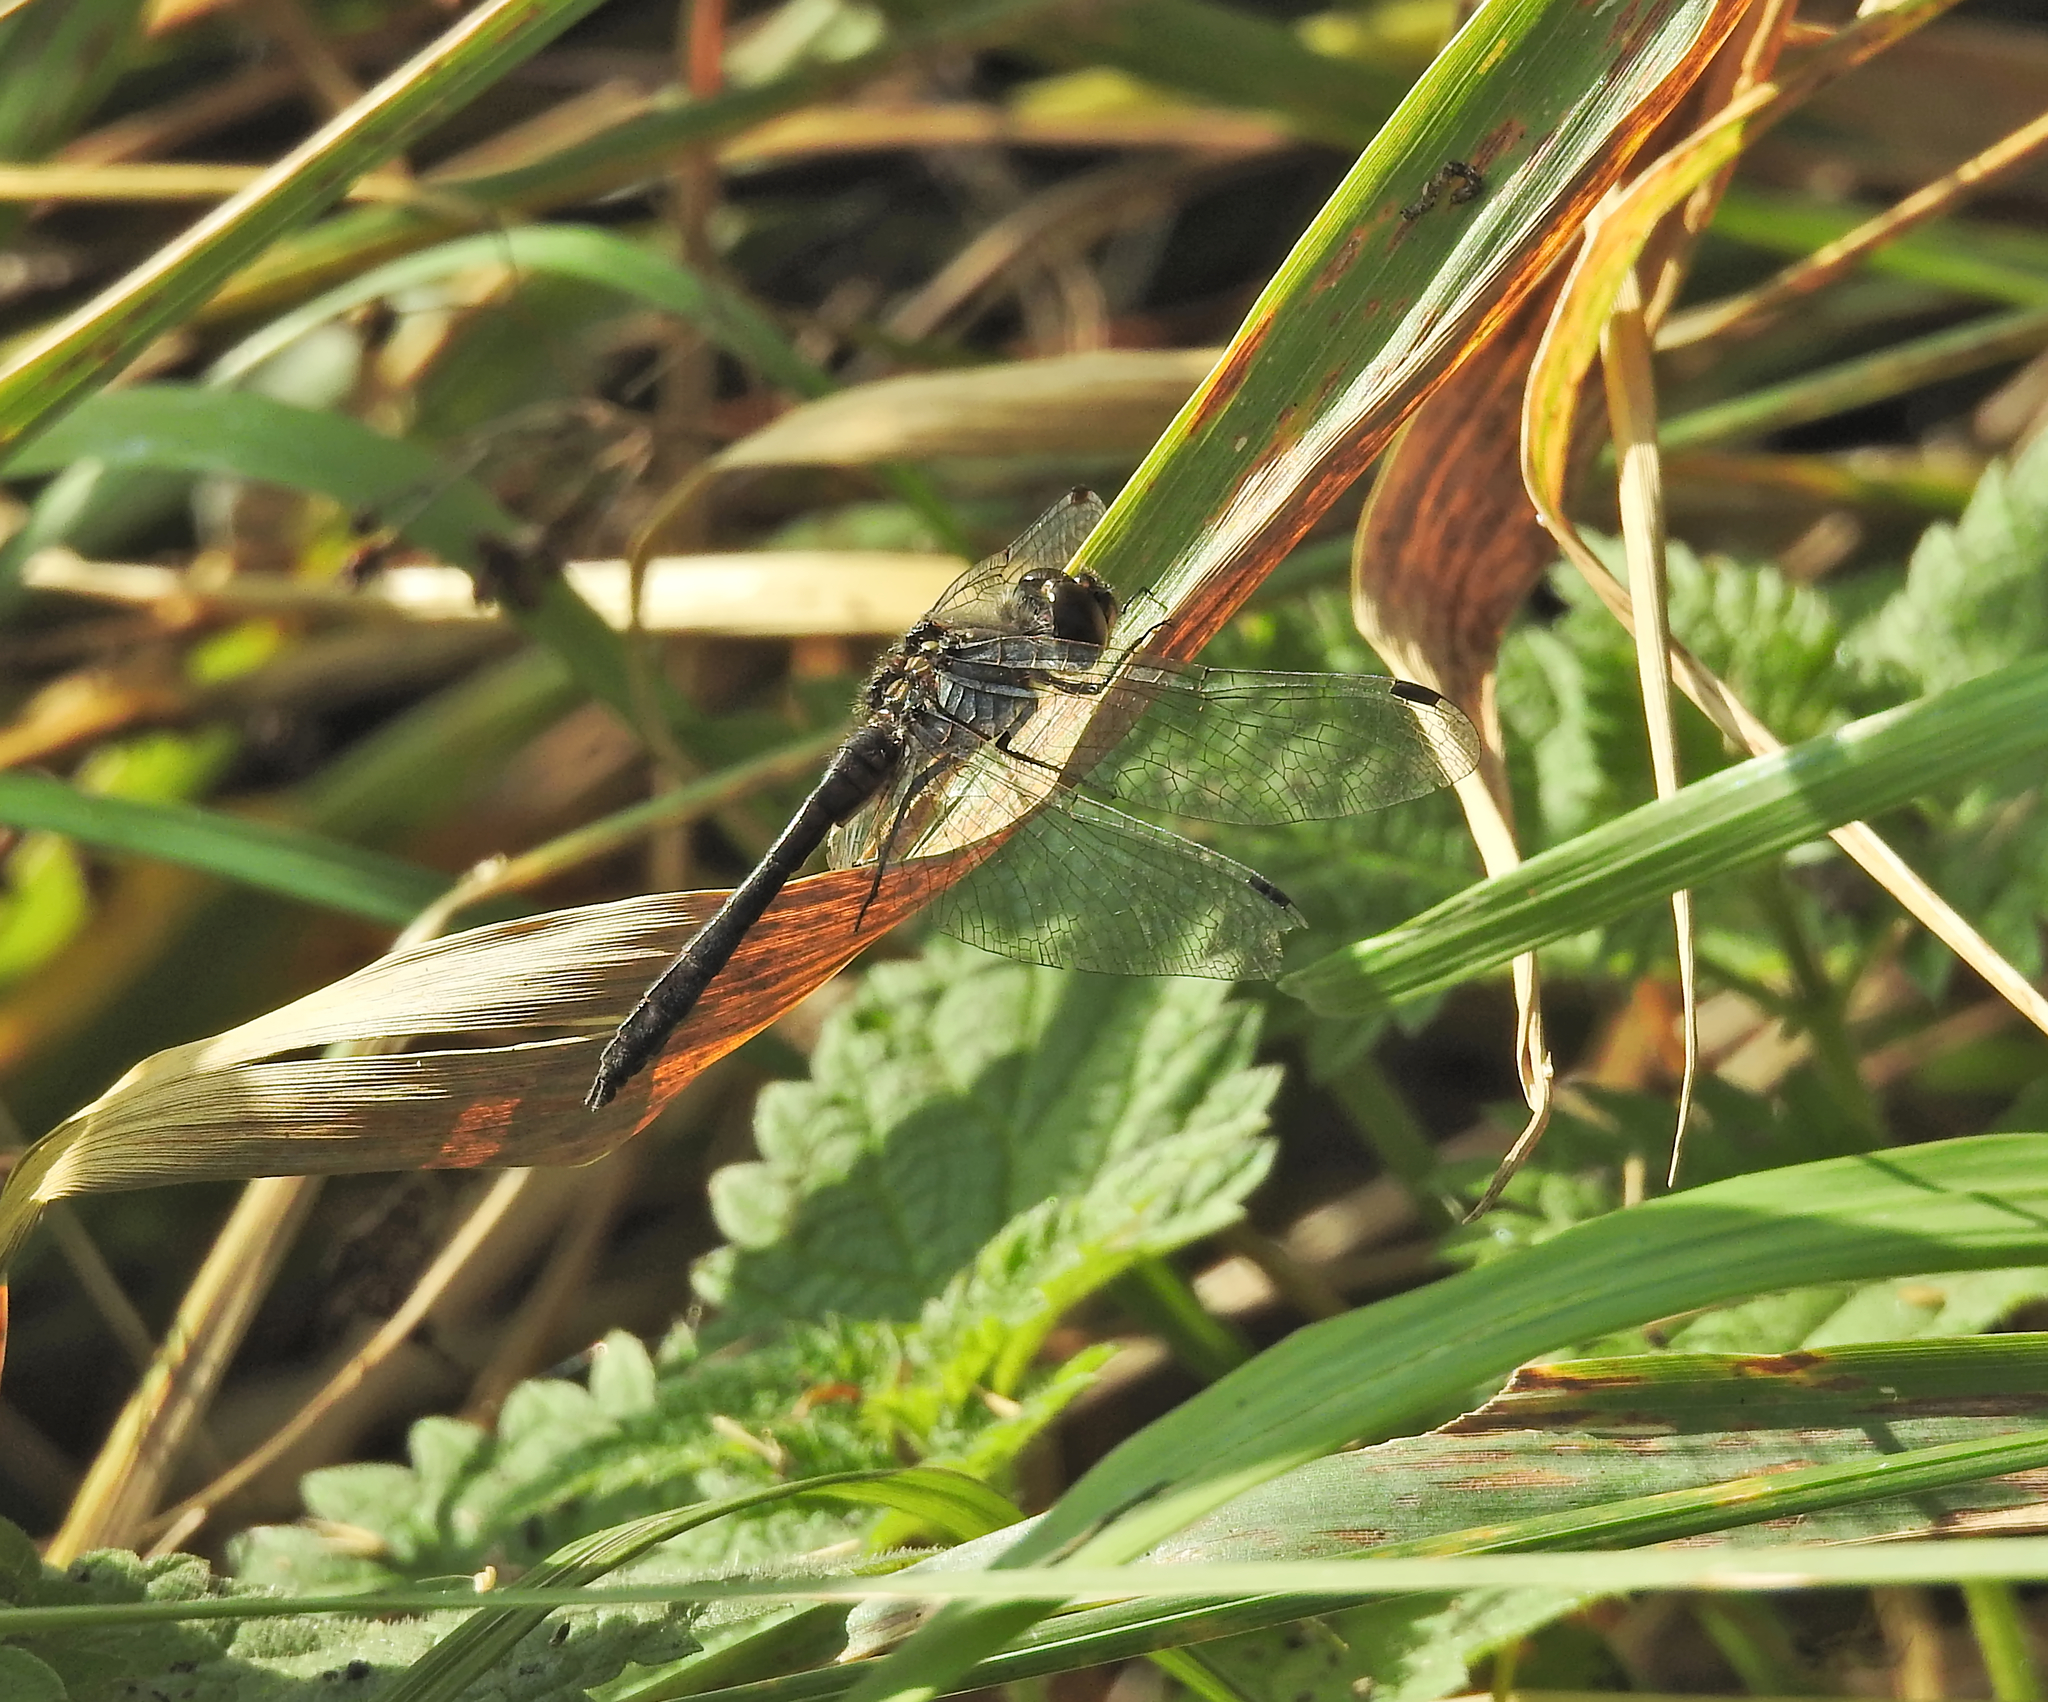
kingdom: Animalia
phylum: Arthropoda
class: Insecta
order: Odonata
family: Libellulidae
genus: Sympetrum
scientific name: Sympetrum danae
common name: Black darter
